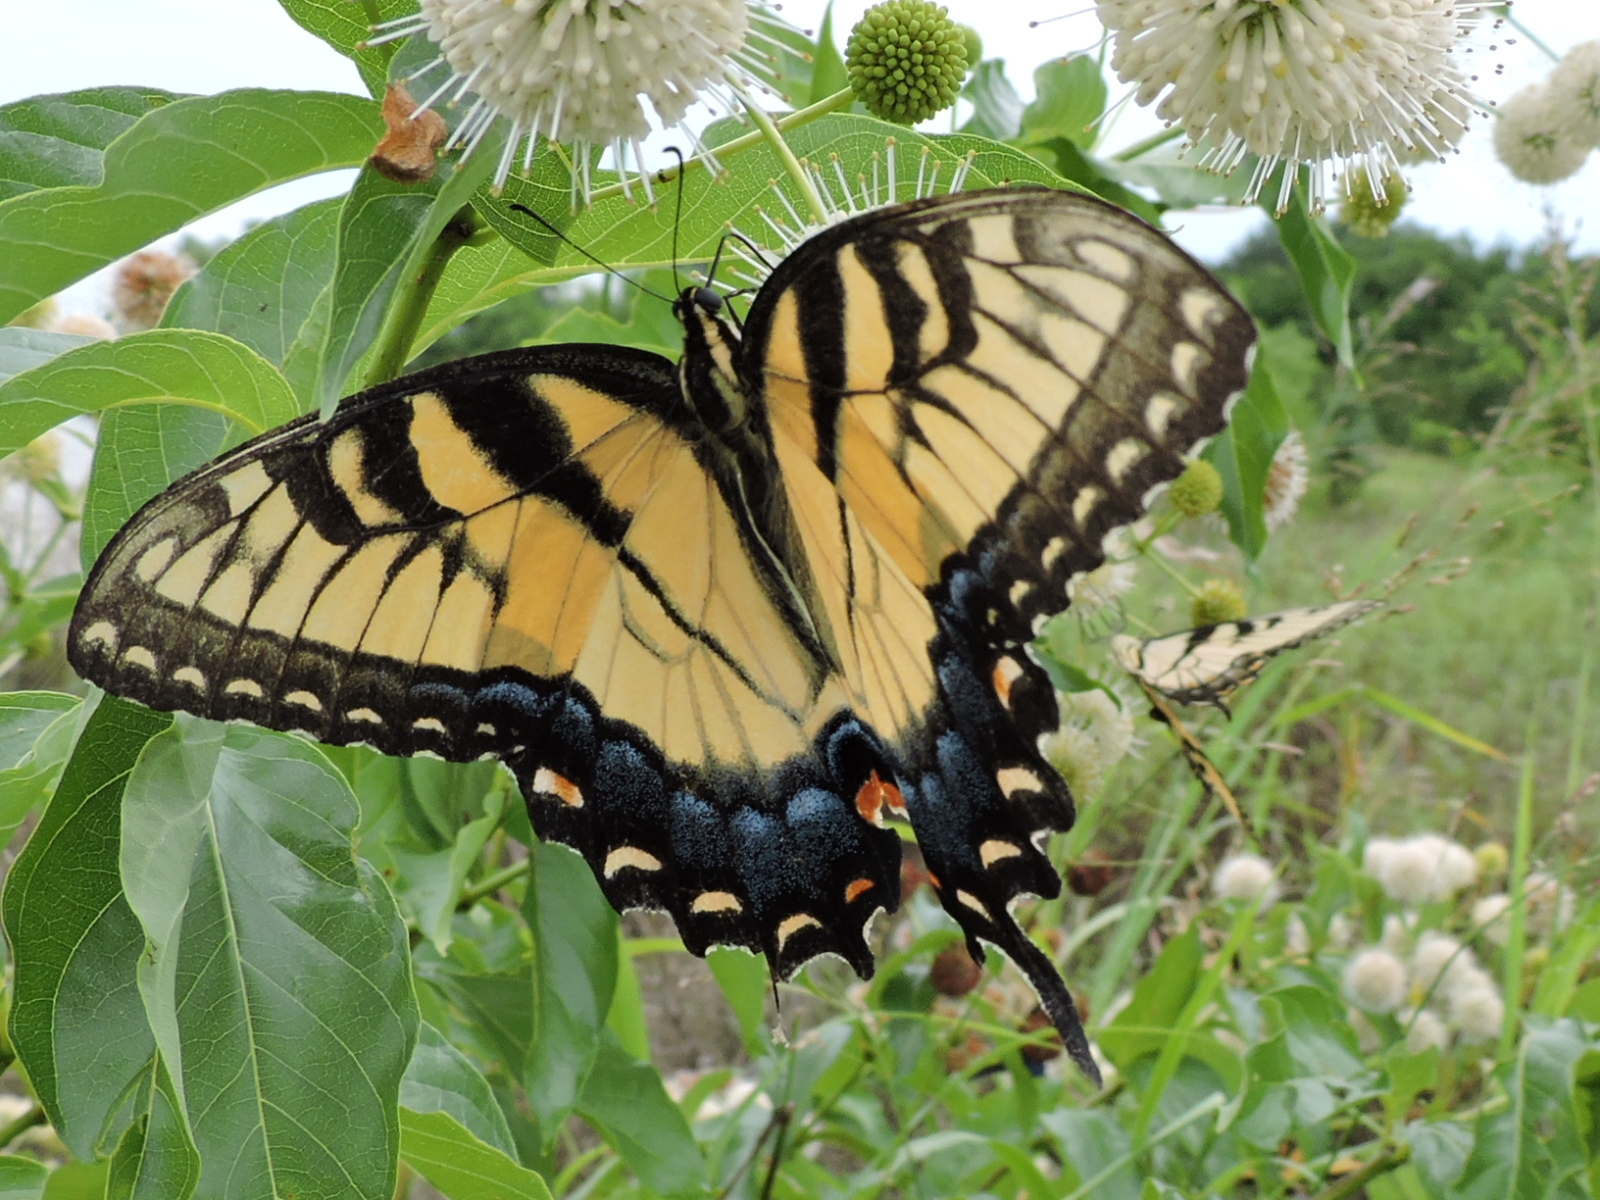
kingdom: Animalia
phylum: Arthropoda
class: Insecta
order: Lepidoptera
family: Papilionidae
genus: Papilio
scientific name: Papilio glaucus
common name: Tiger swallowtail
